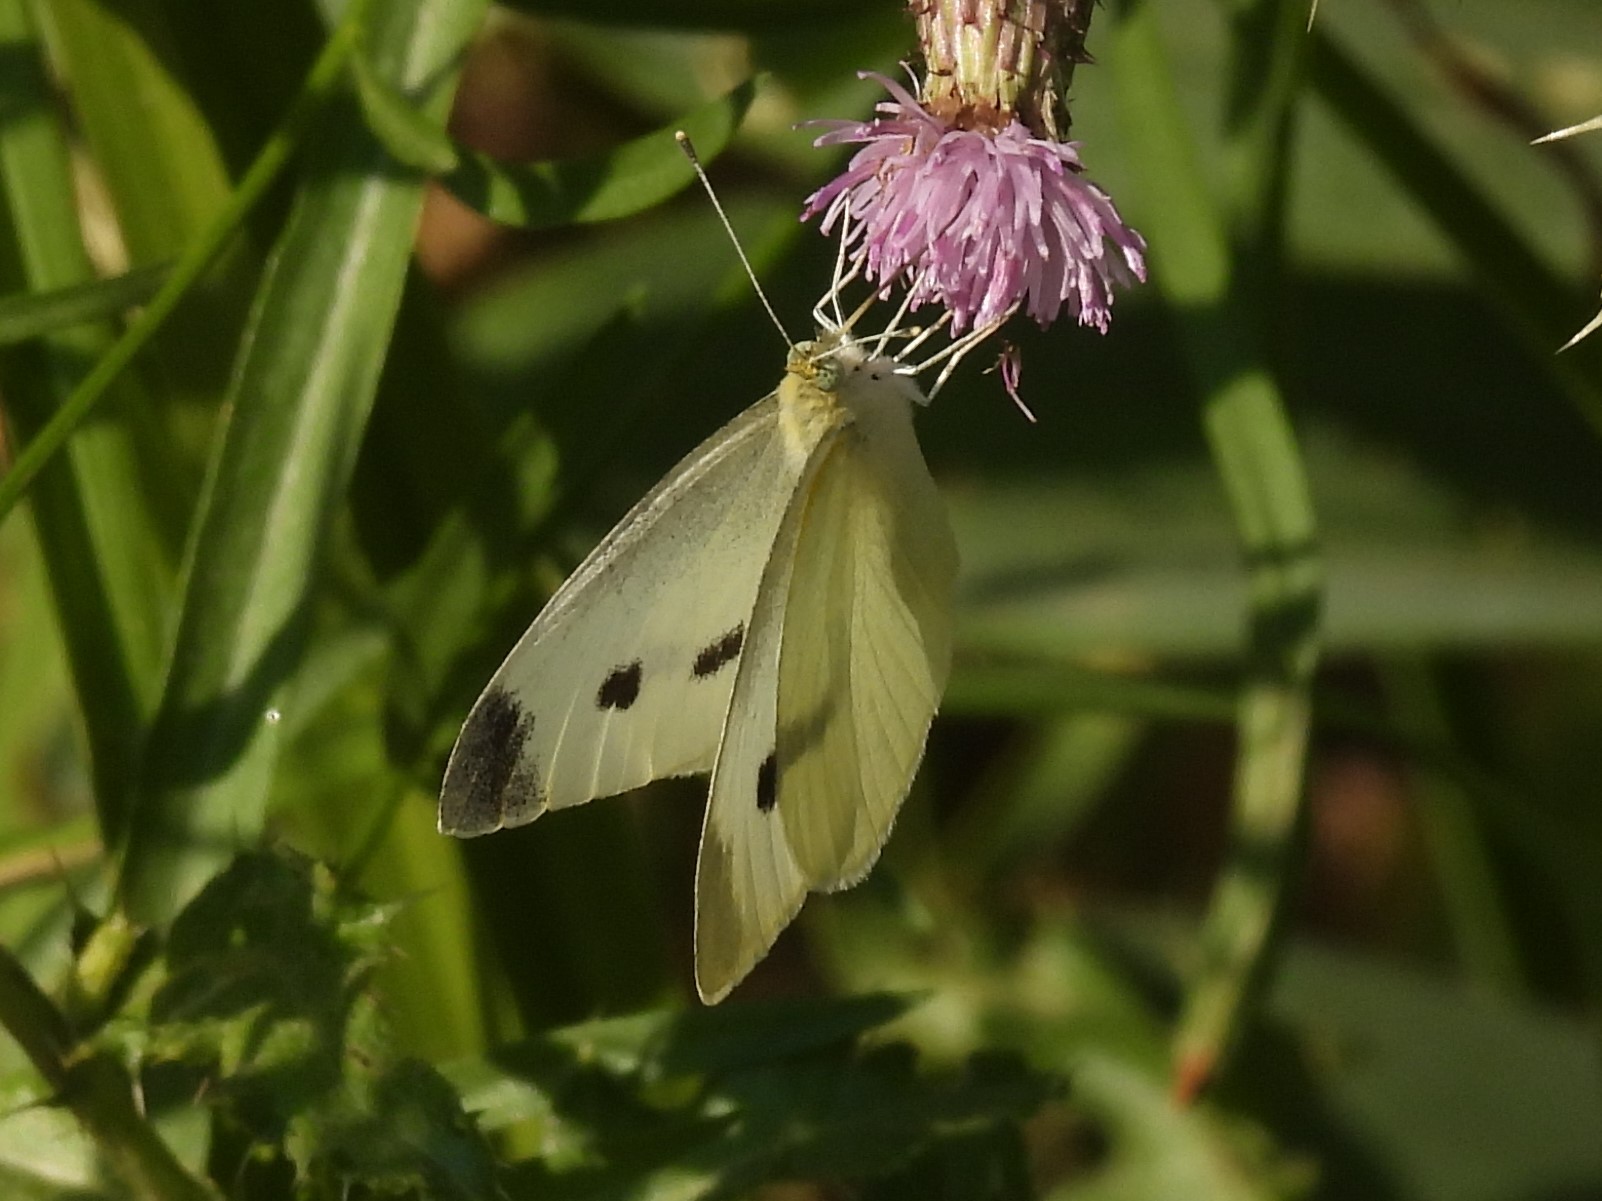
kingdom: Animalia
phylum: Arthropoda
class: Insecta
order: Lepidoptera
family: Pieridae
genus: Pieris
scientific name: Pieris rapae
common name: Small white
